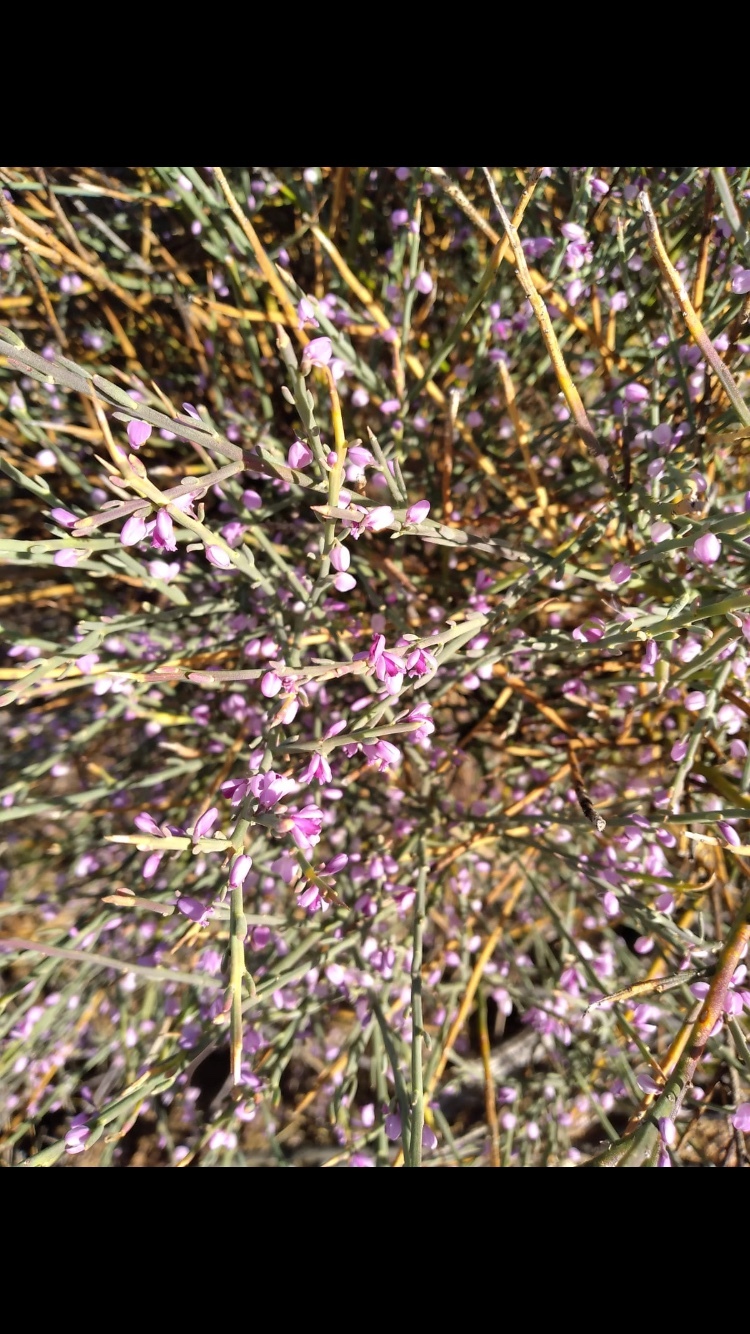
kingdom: Plantae
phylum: Tracheophyta
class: Magnoliopsida
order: Fabales
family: Polygalaceae
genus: Muraltia
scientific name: Muraltia spinosa
